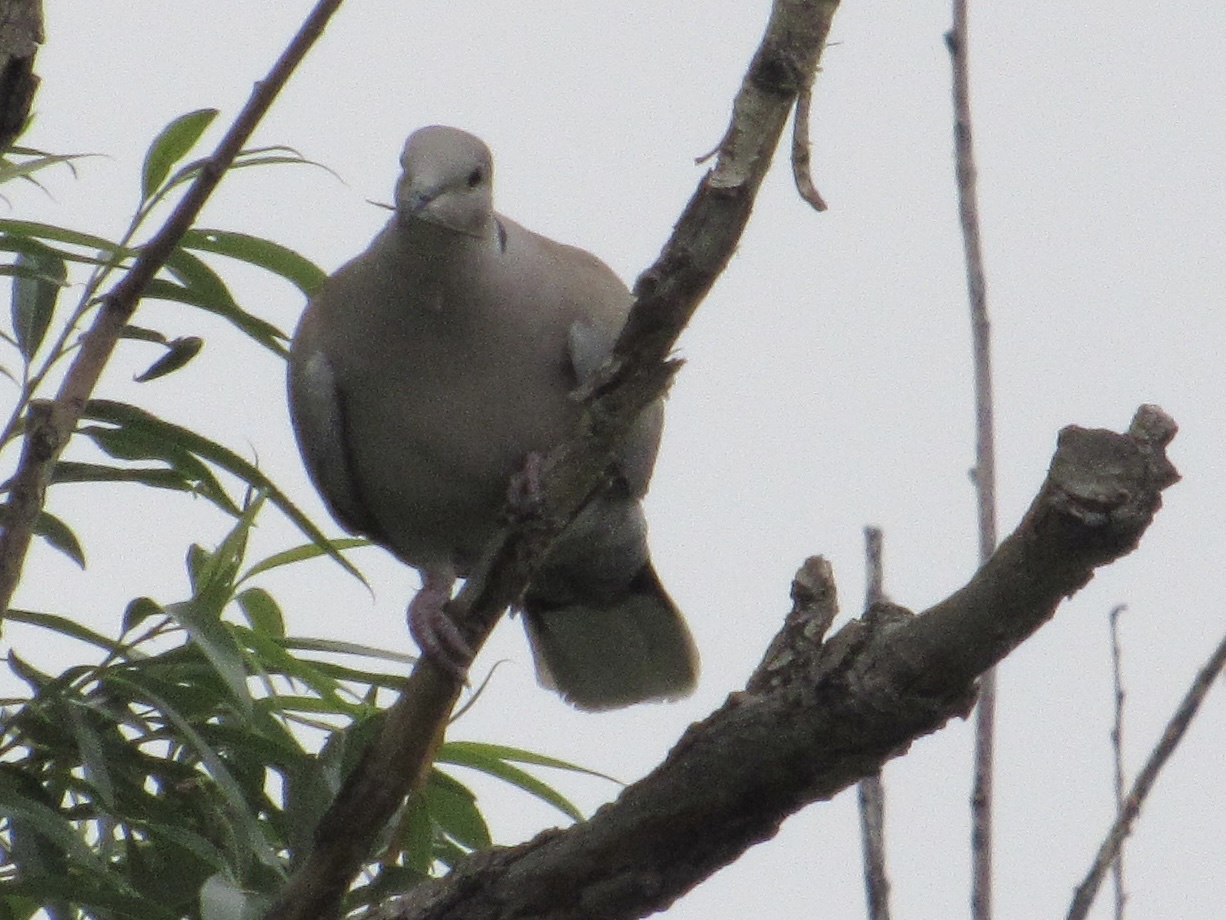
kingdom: Animalia
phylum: Chordata
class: Aves
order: Columbiformes
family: Columbidae
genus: Streptopelia
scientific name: Streptopelia decaocto
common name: Eurasian collared dove
